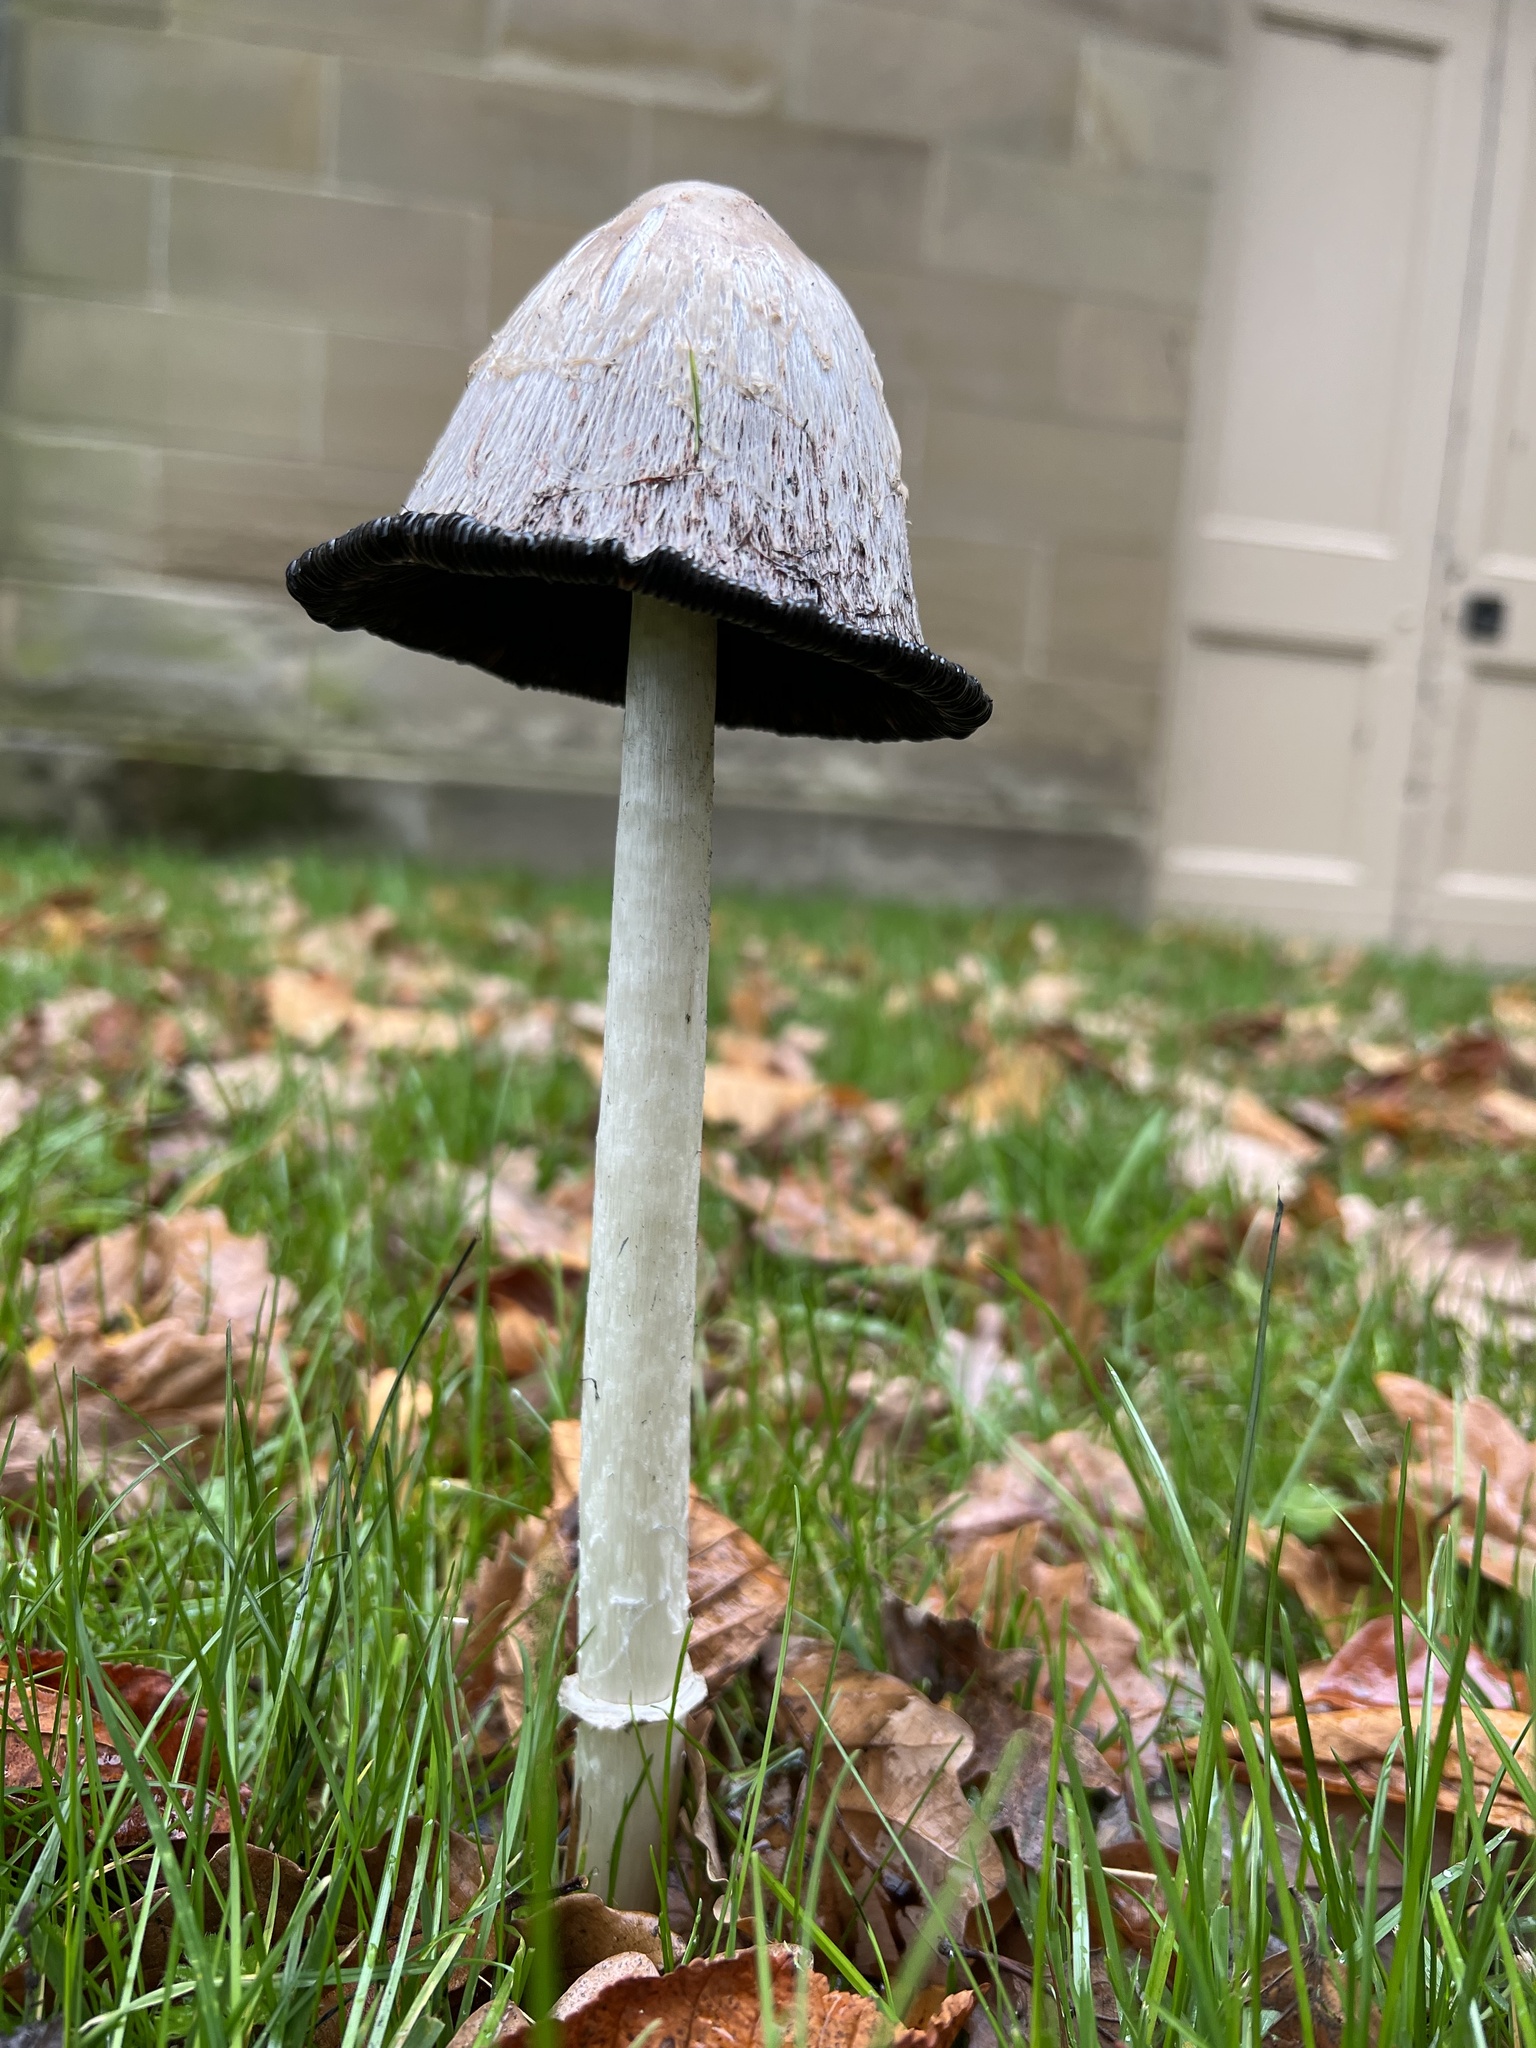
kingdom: Fungi
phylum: Basidiomycota
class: Agaricomycetes
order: Agaricales
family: Agaricaceae
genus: Coprinus
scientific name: Coprinus comatus
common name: Lawyer's wig
